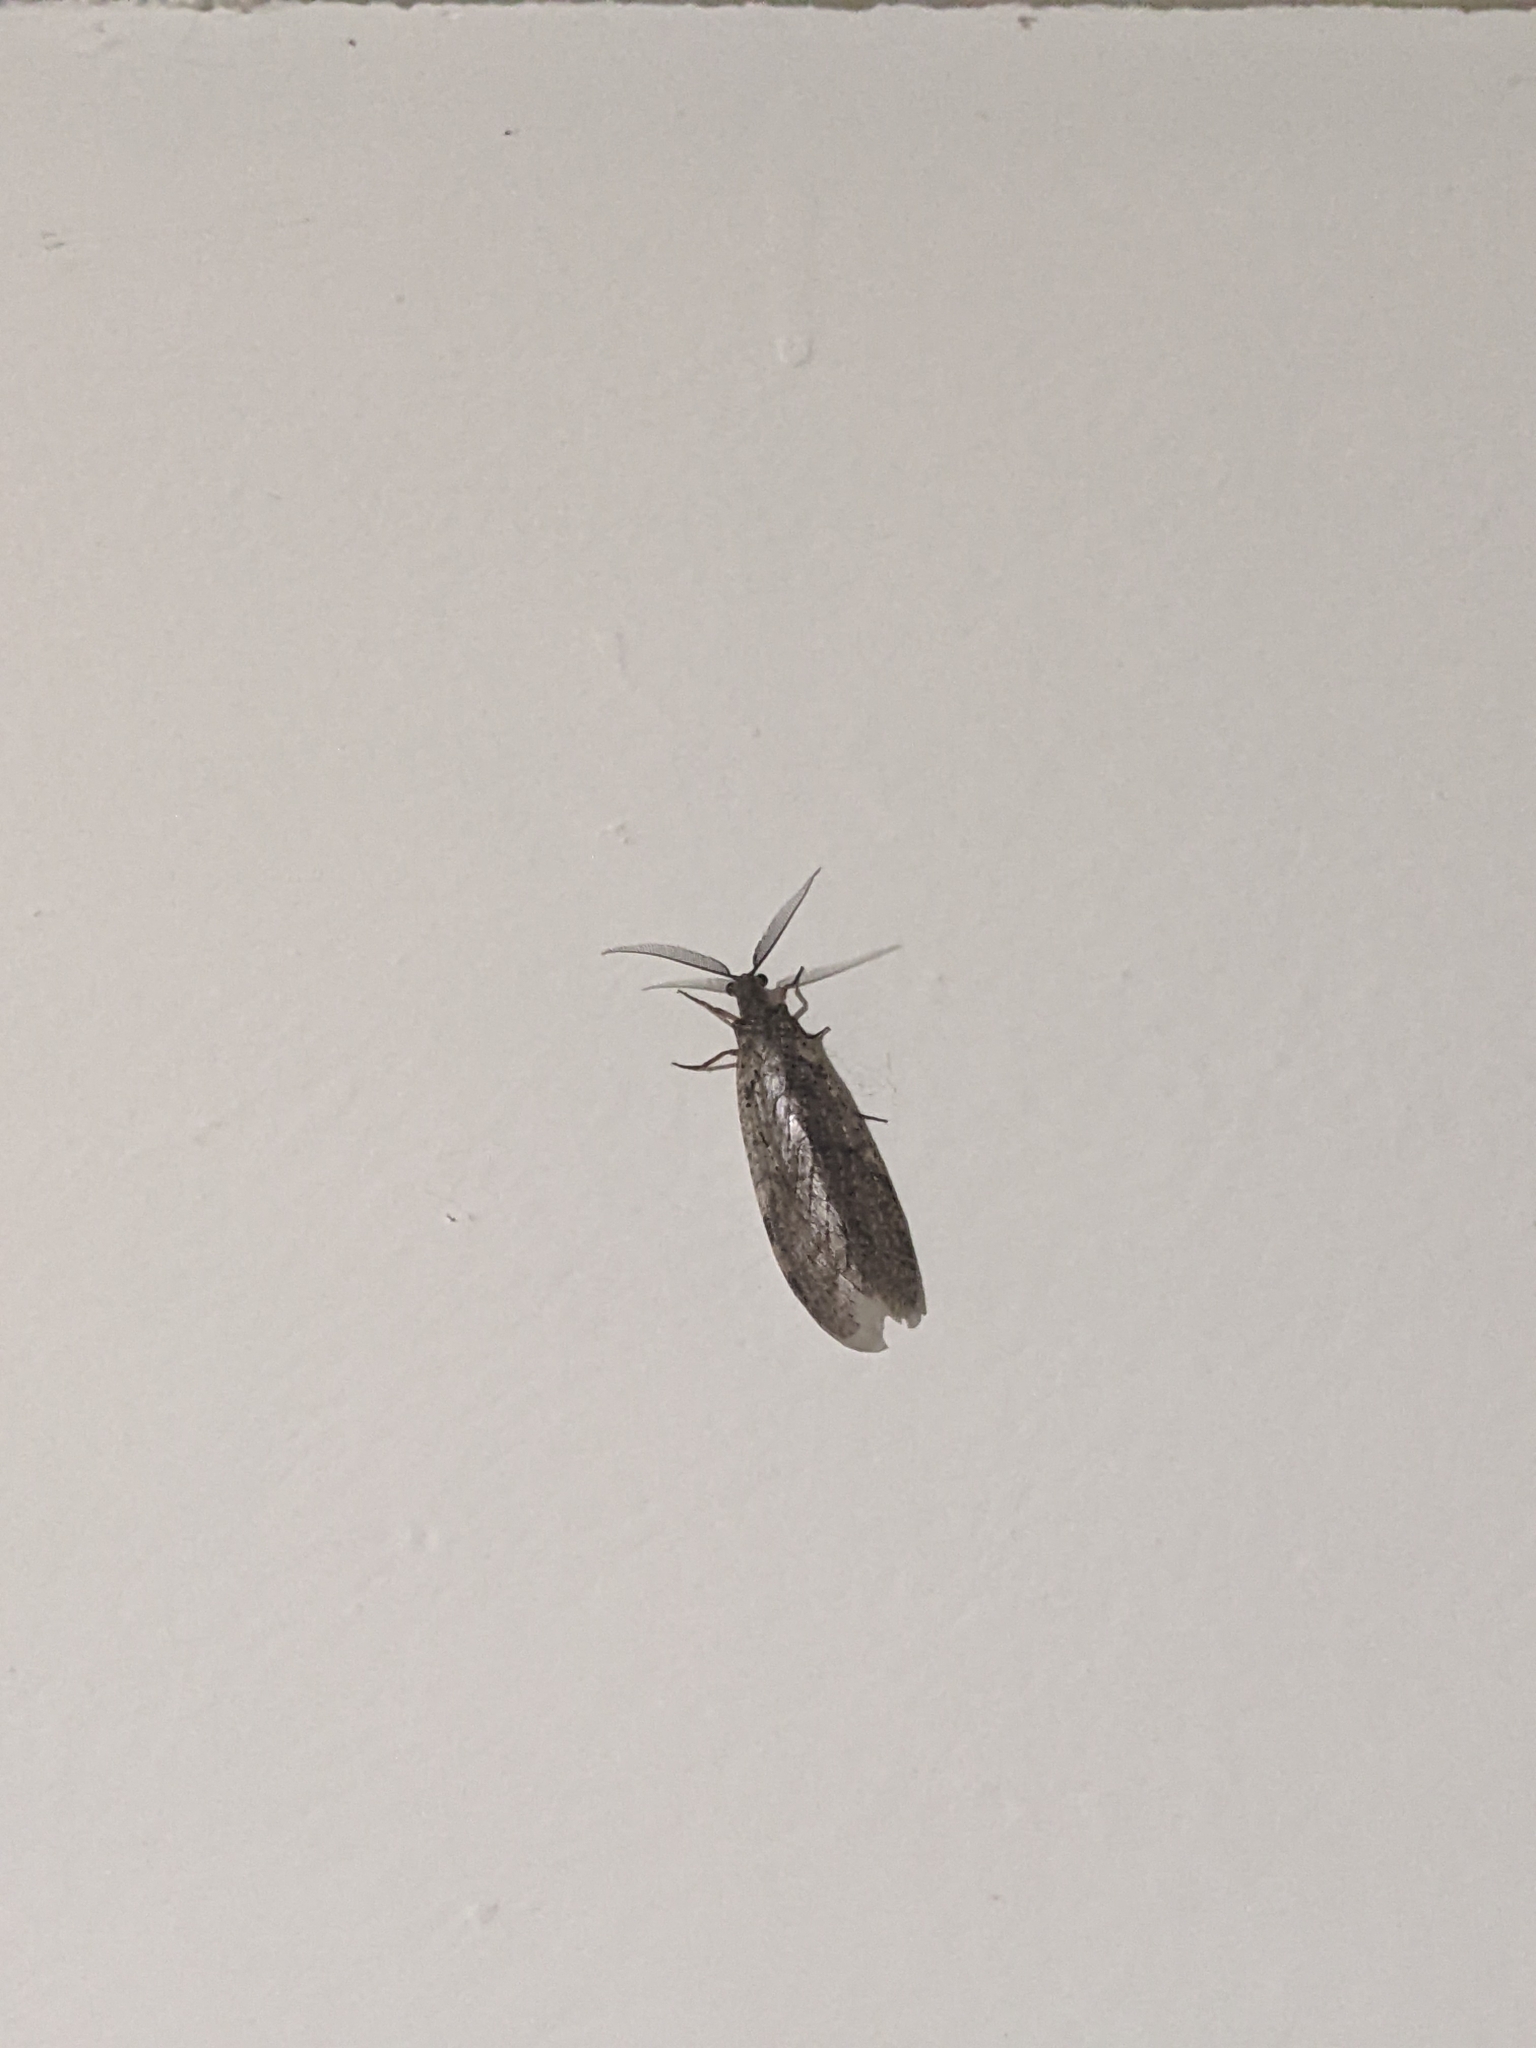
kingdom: Animalia
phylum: Arthropoda
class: Insecta
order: Megaloptera
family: Corydalidae
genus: Chauliodes
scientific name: Chauliodes pectinicornis
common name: Summer fishfly
